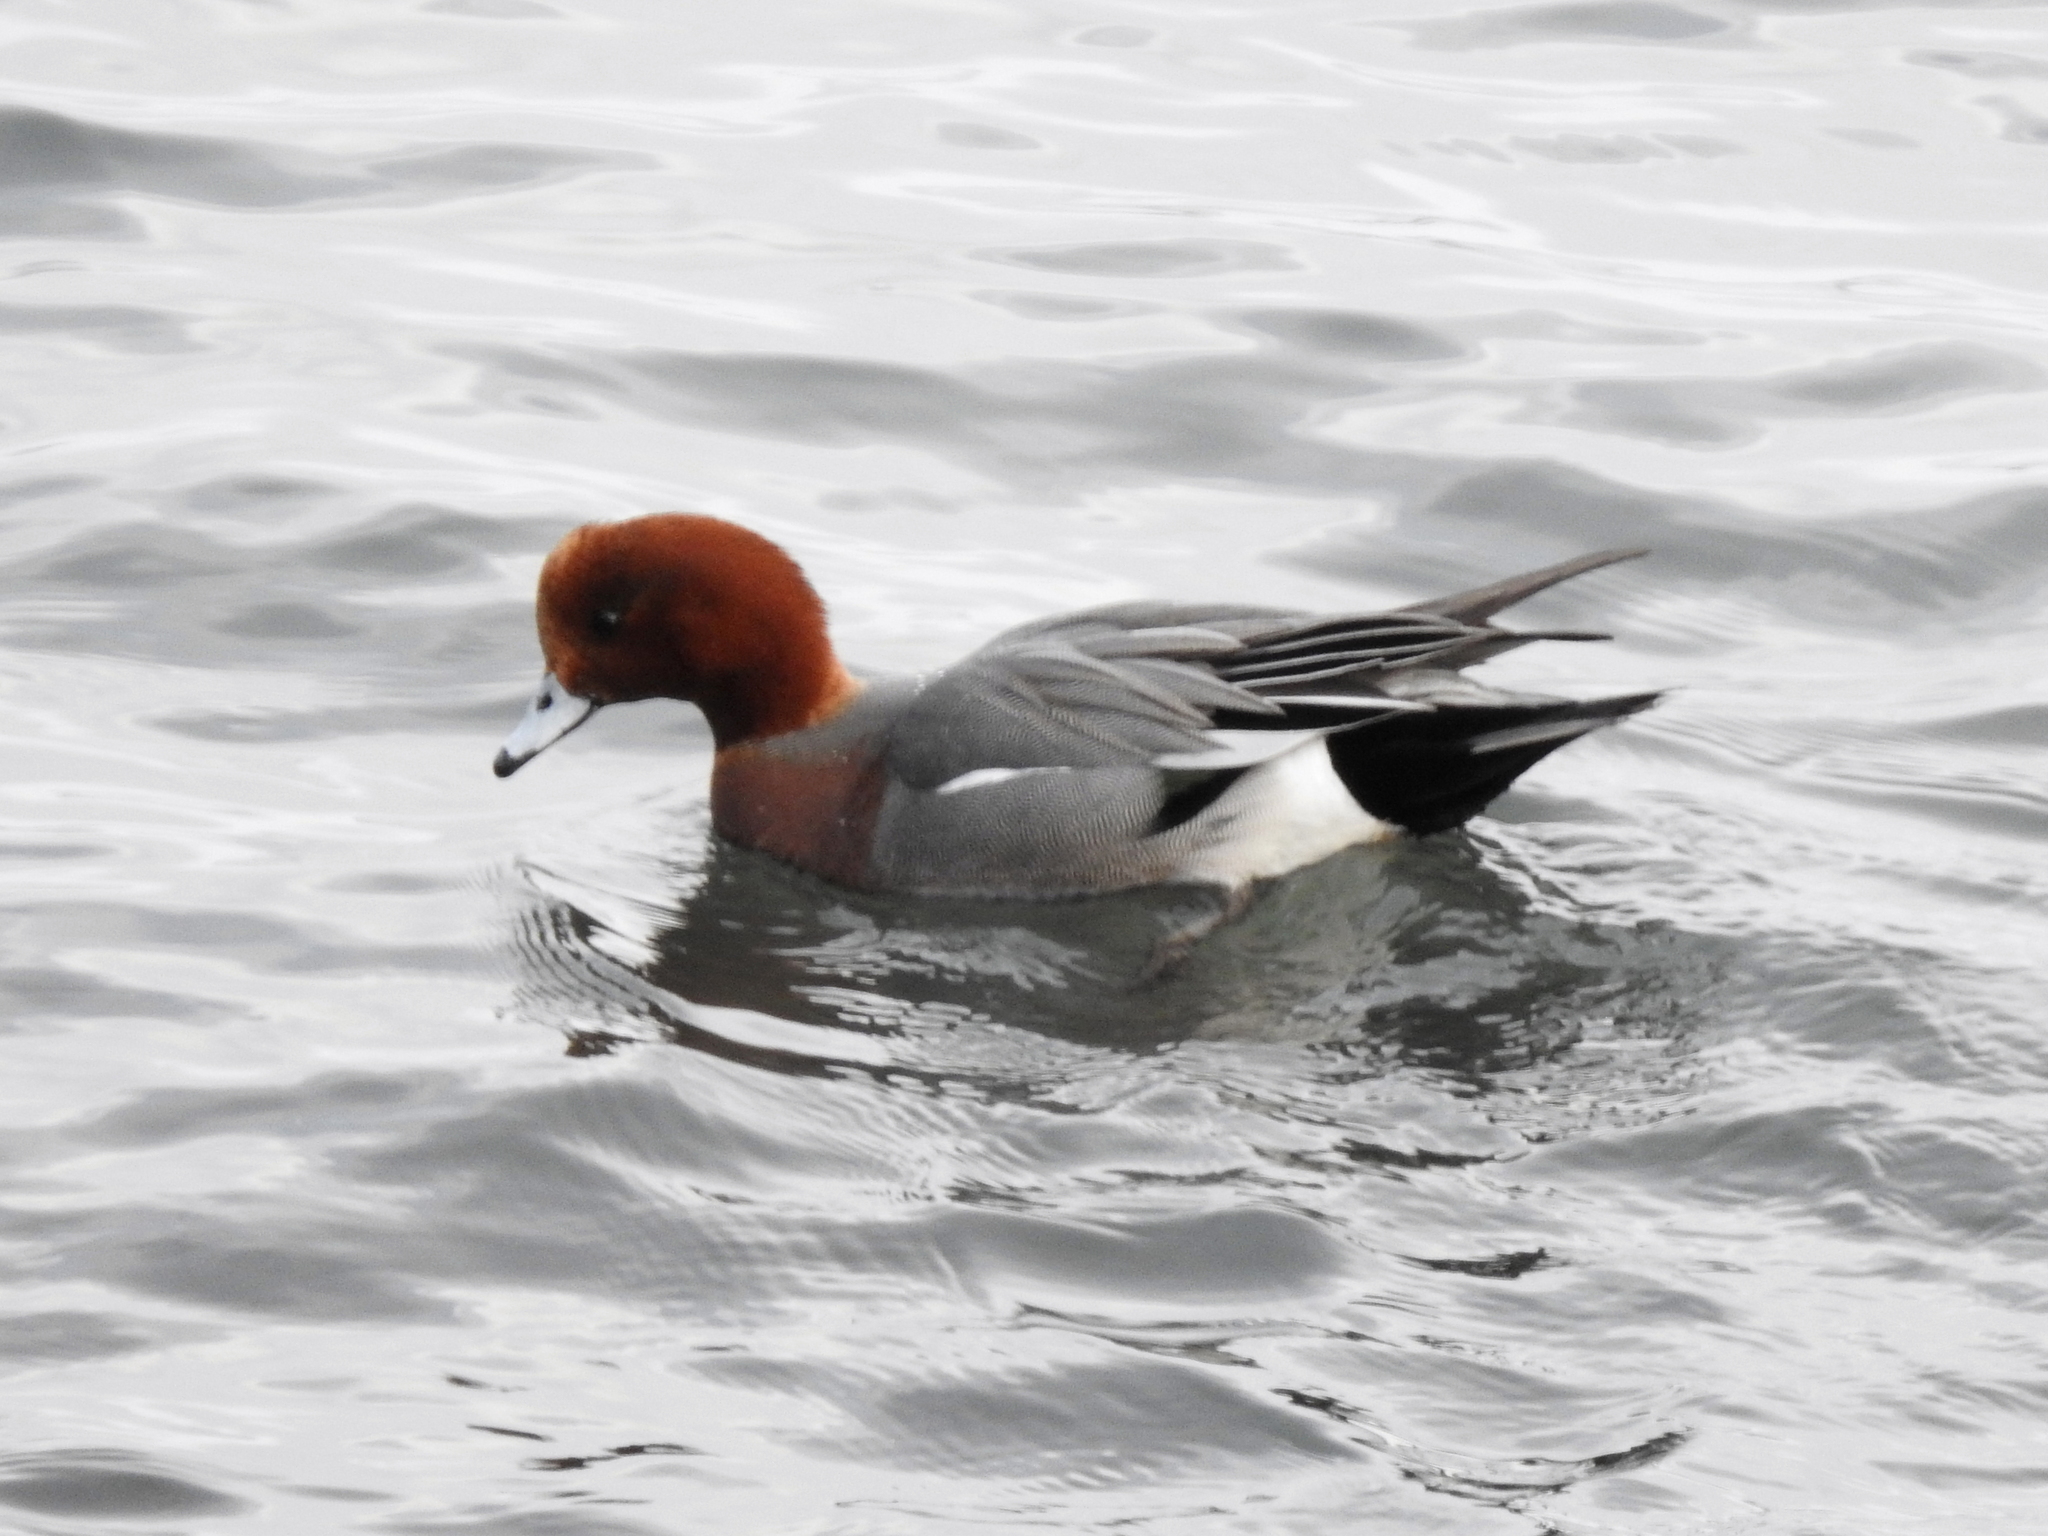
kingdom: Animalia
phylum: Chordata
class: Aves
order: Anseriformes
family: Anatidae
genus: Mareca
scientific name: Mareca penelope
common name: Eurasian wigeon
